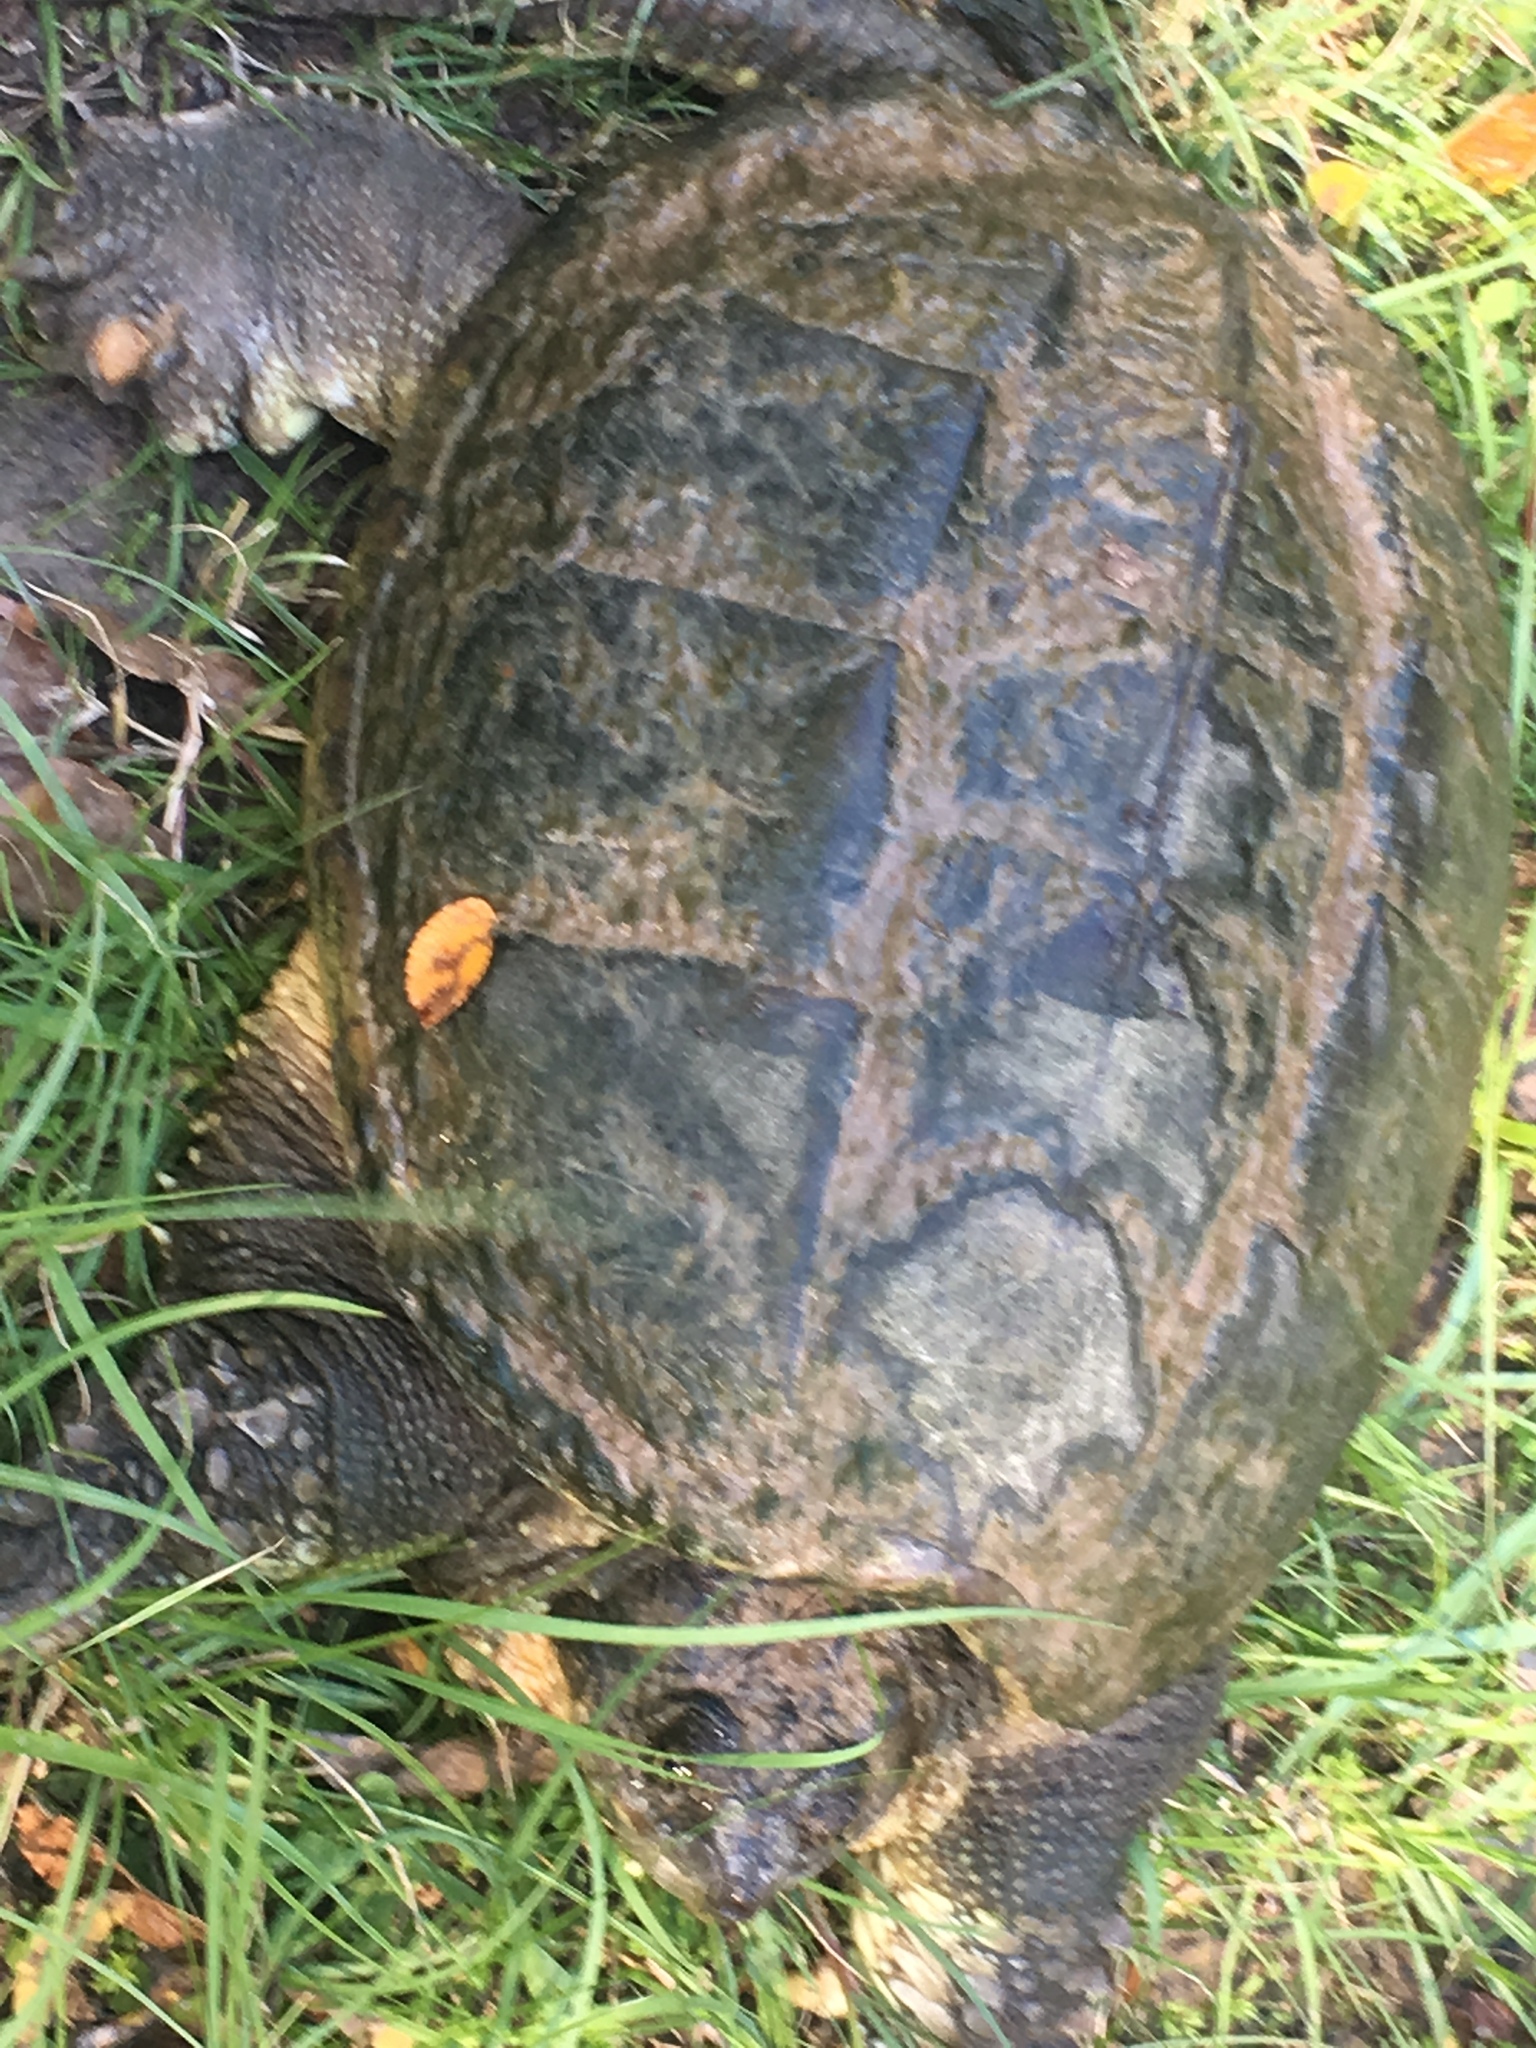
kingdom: Animalia
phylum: Chordata
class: Testudines
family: Chelydridae
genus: Chelydra
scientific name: Chelydra serpentina
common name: Common snapping turtle
